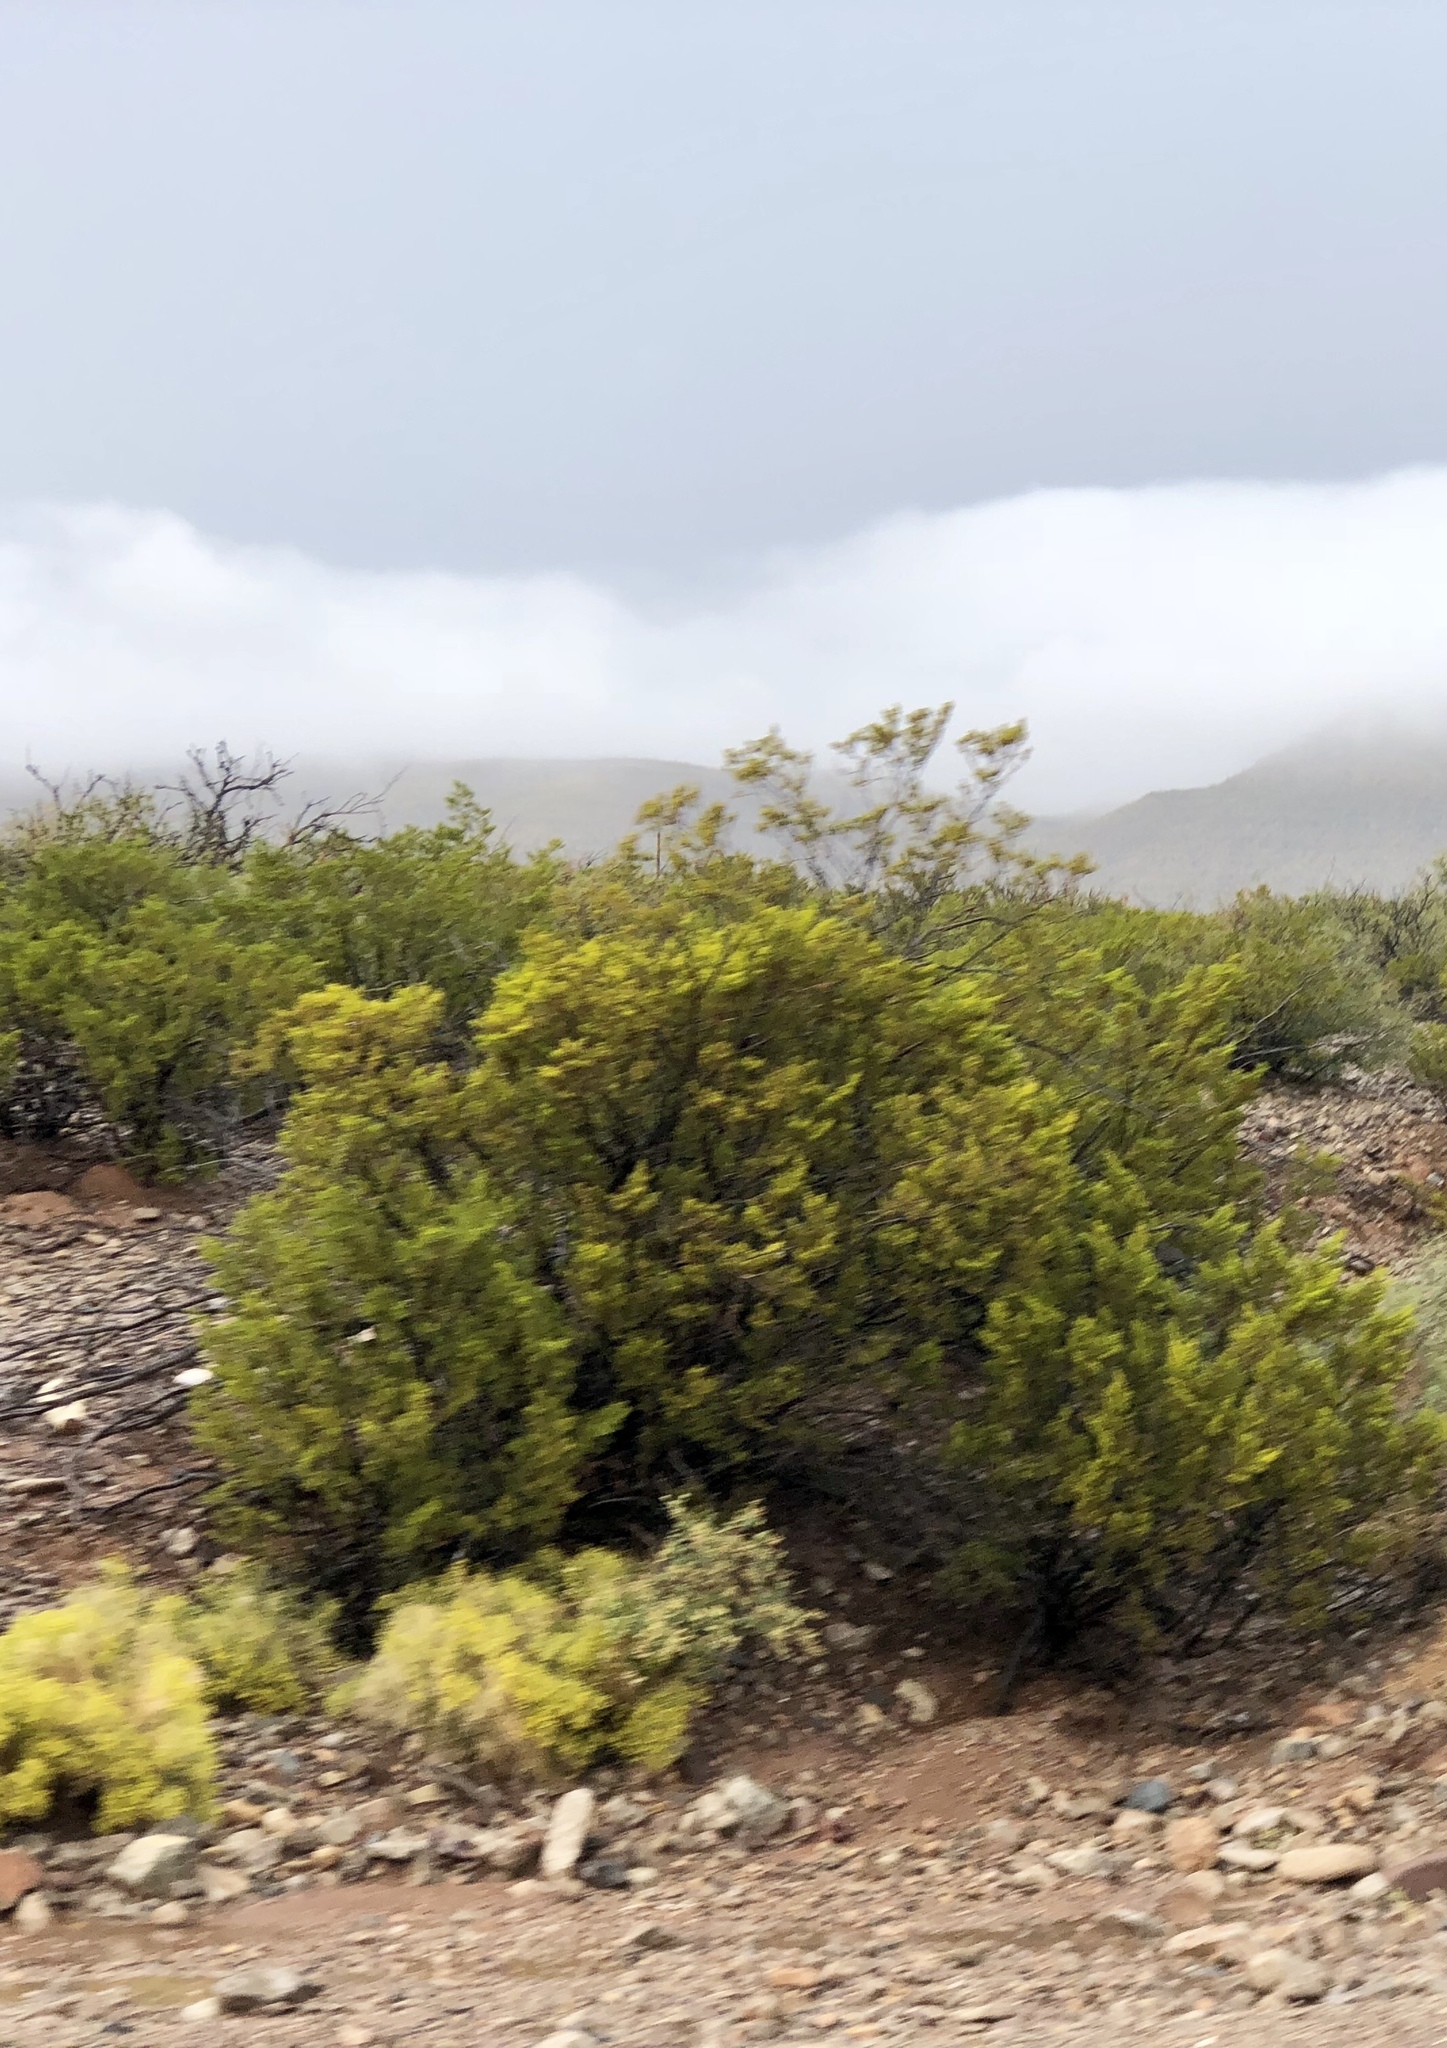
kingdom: Plantae
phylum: Tracheophyta
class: Magnoliopsida
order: Zygophyllales
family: Zygophyllaceae
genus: Larrea
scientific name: Larrea tridentata
